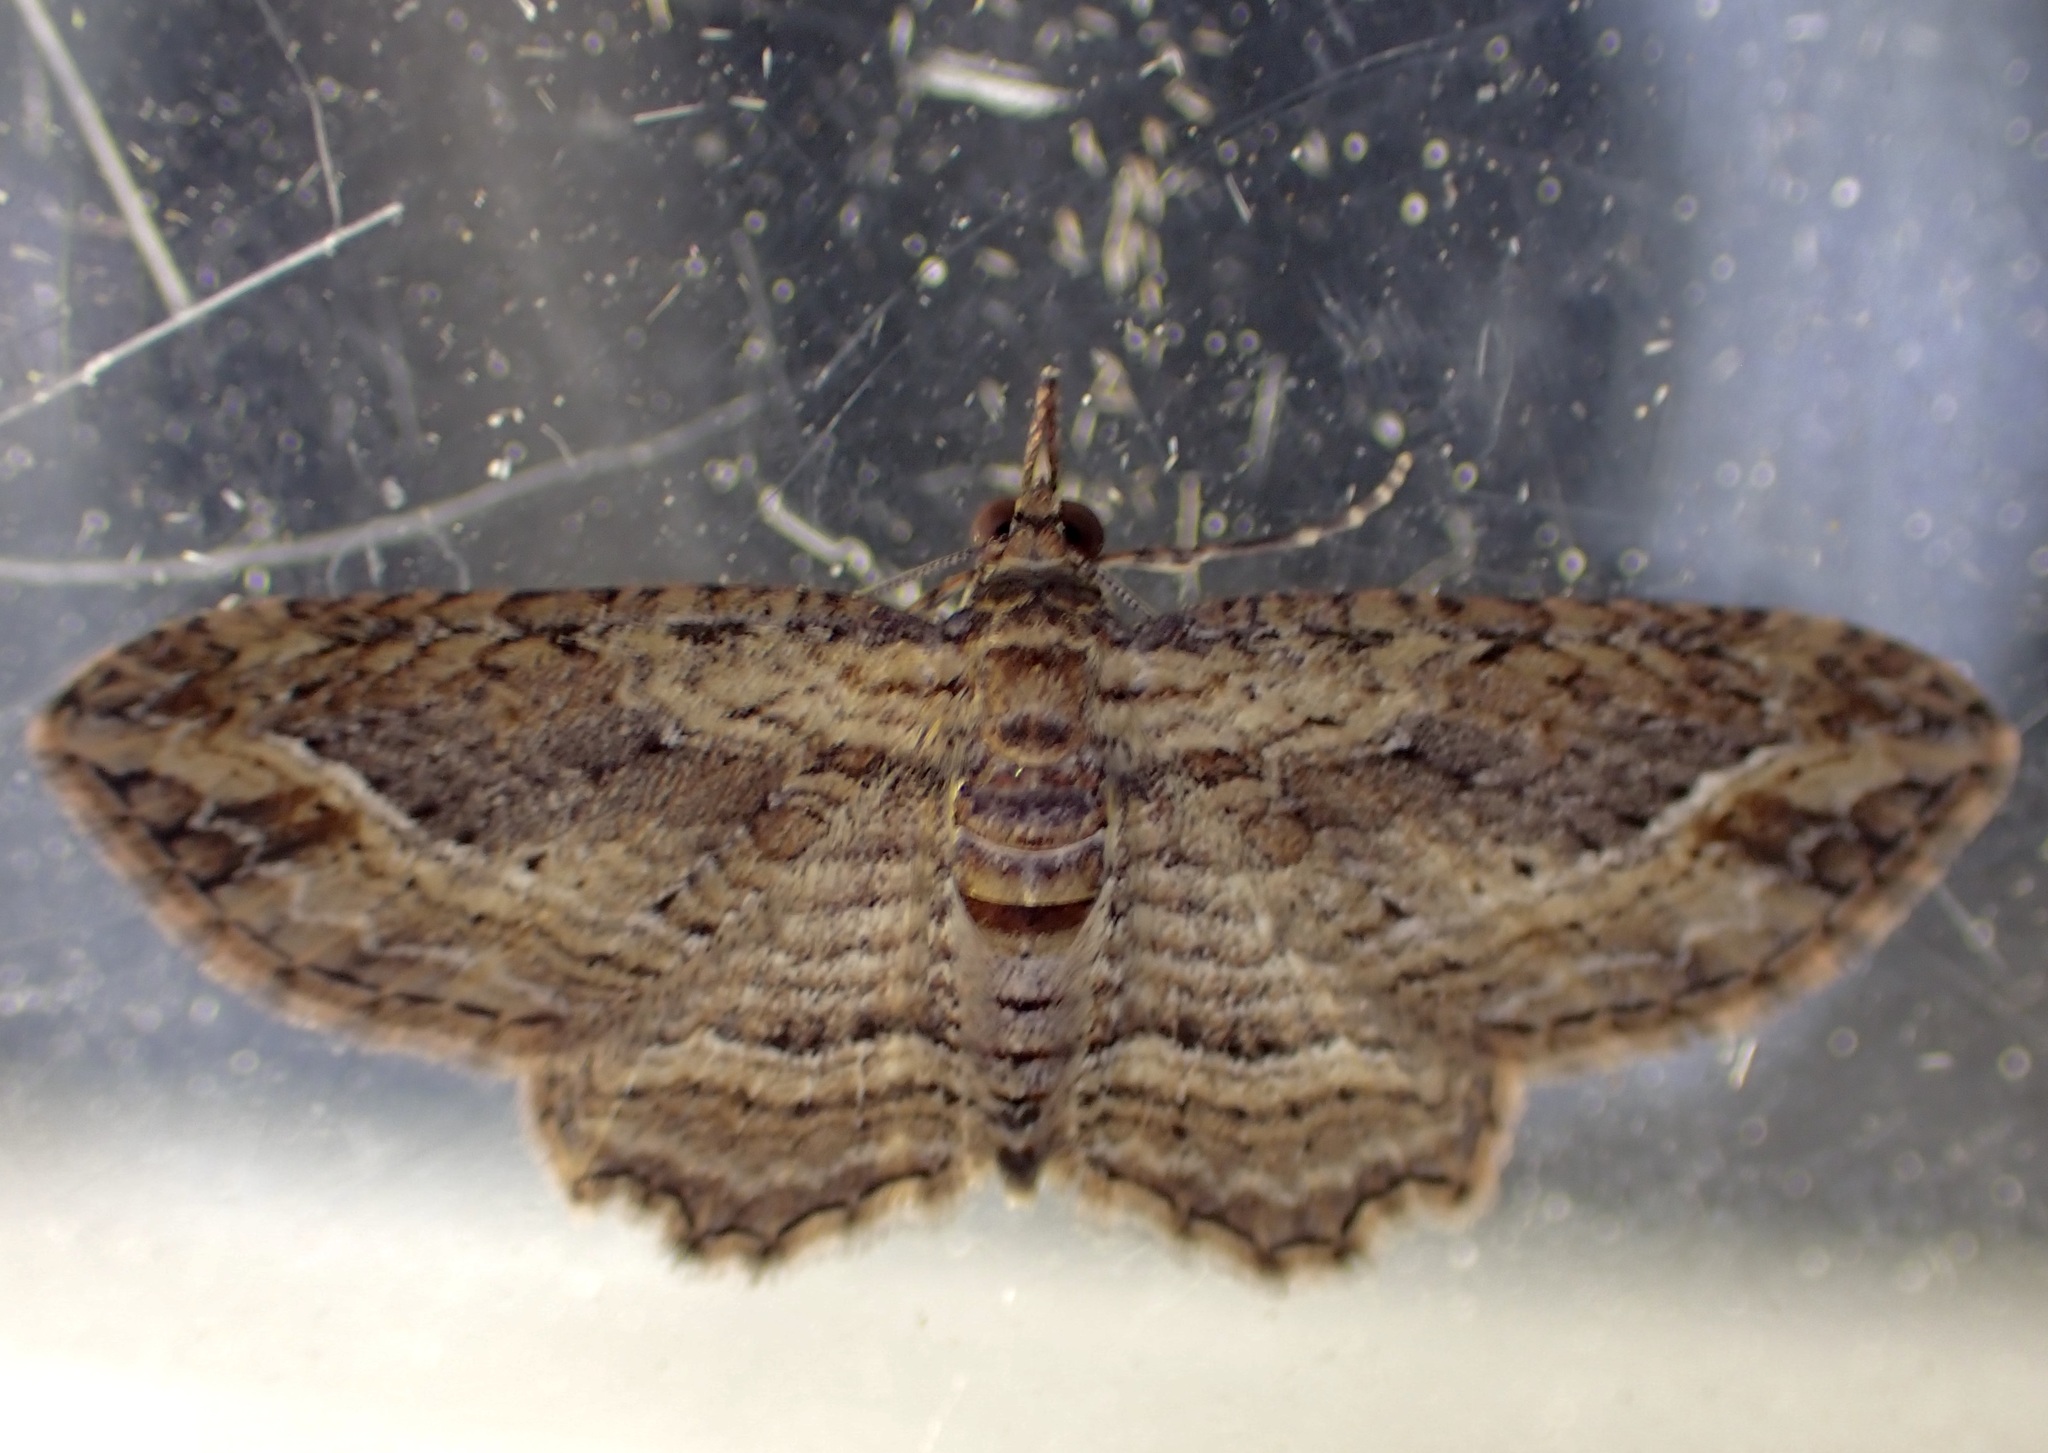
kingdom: Animalia
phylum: Arthropoda
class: Insecta
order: Lepidoptera
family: Geometridae
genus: Chloroclystis
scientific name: Chloroclystis filata
